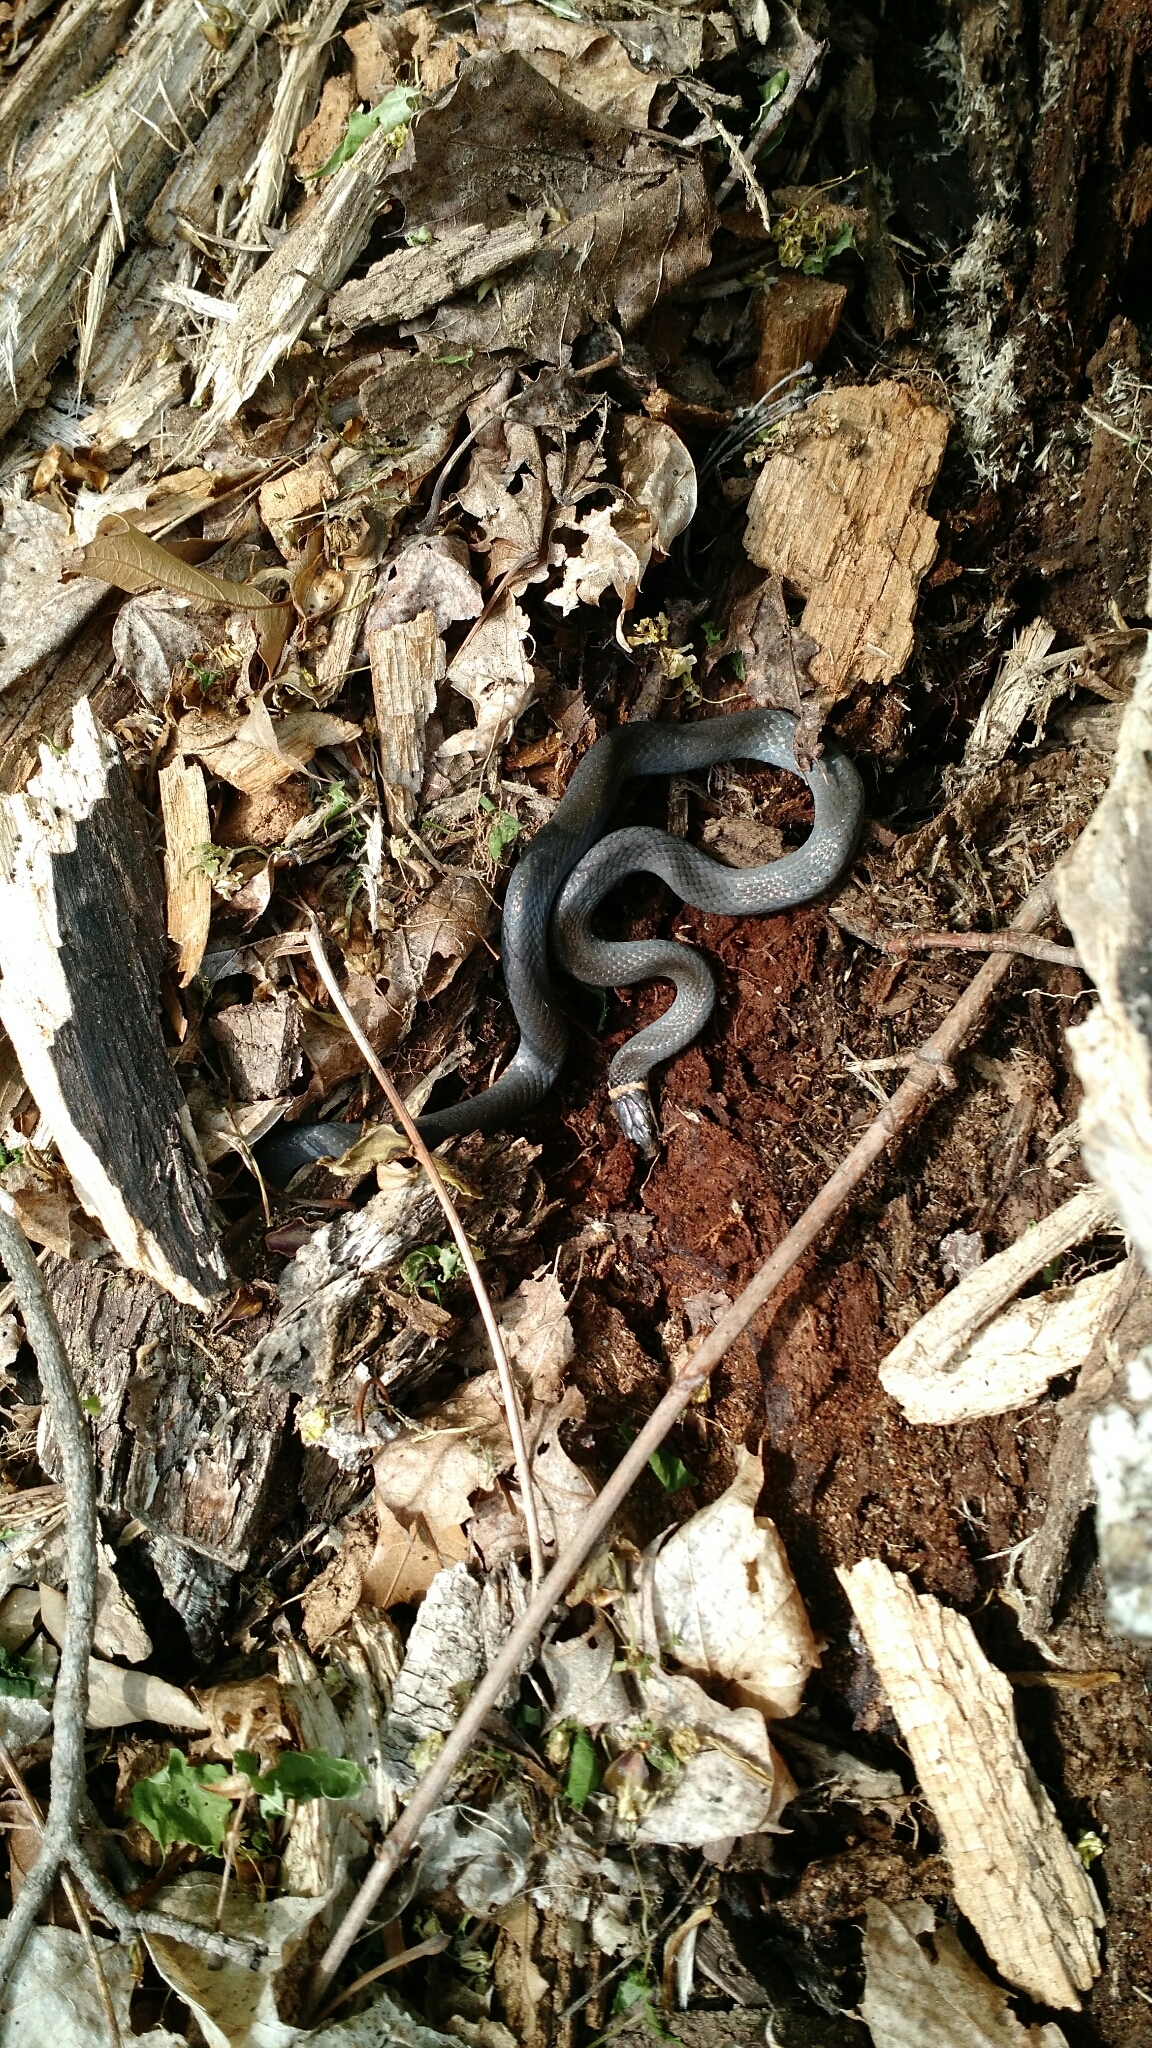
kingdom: Animalia
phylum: Chordata
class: Squamata
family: Colubridae
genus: Diadophis
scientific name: Diadophis punctatus
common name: Ringneck snake
